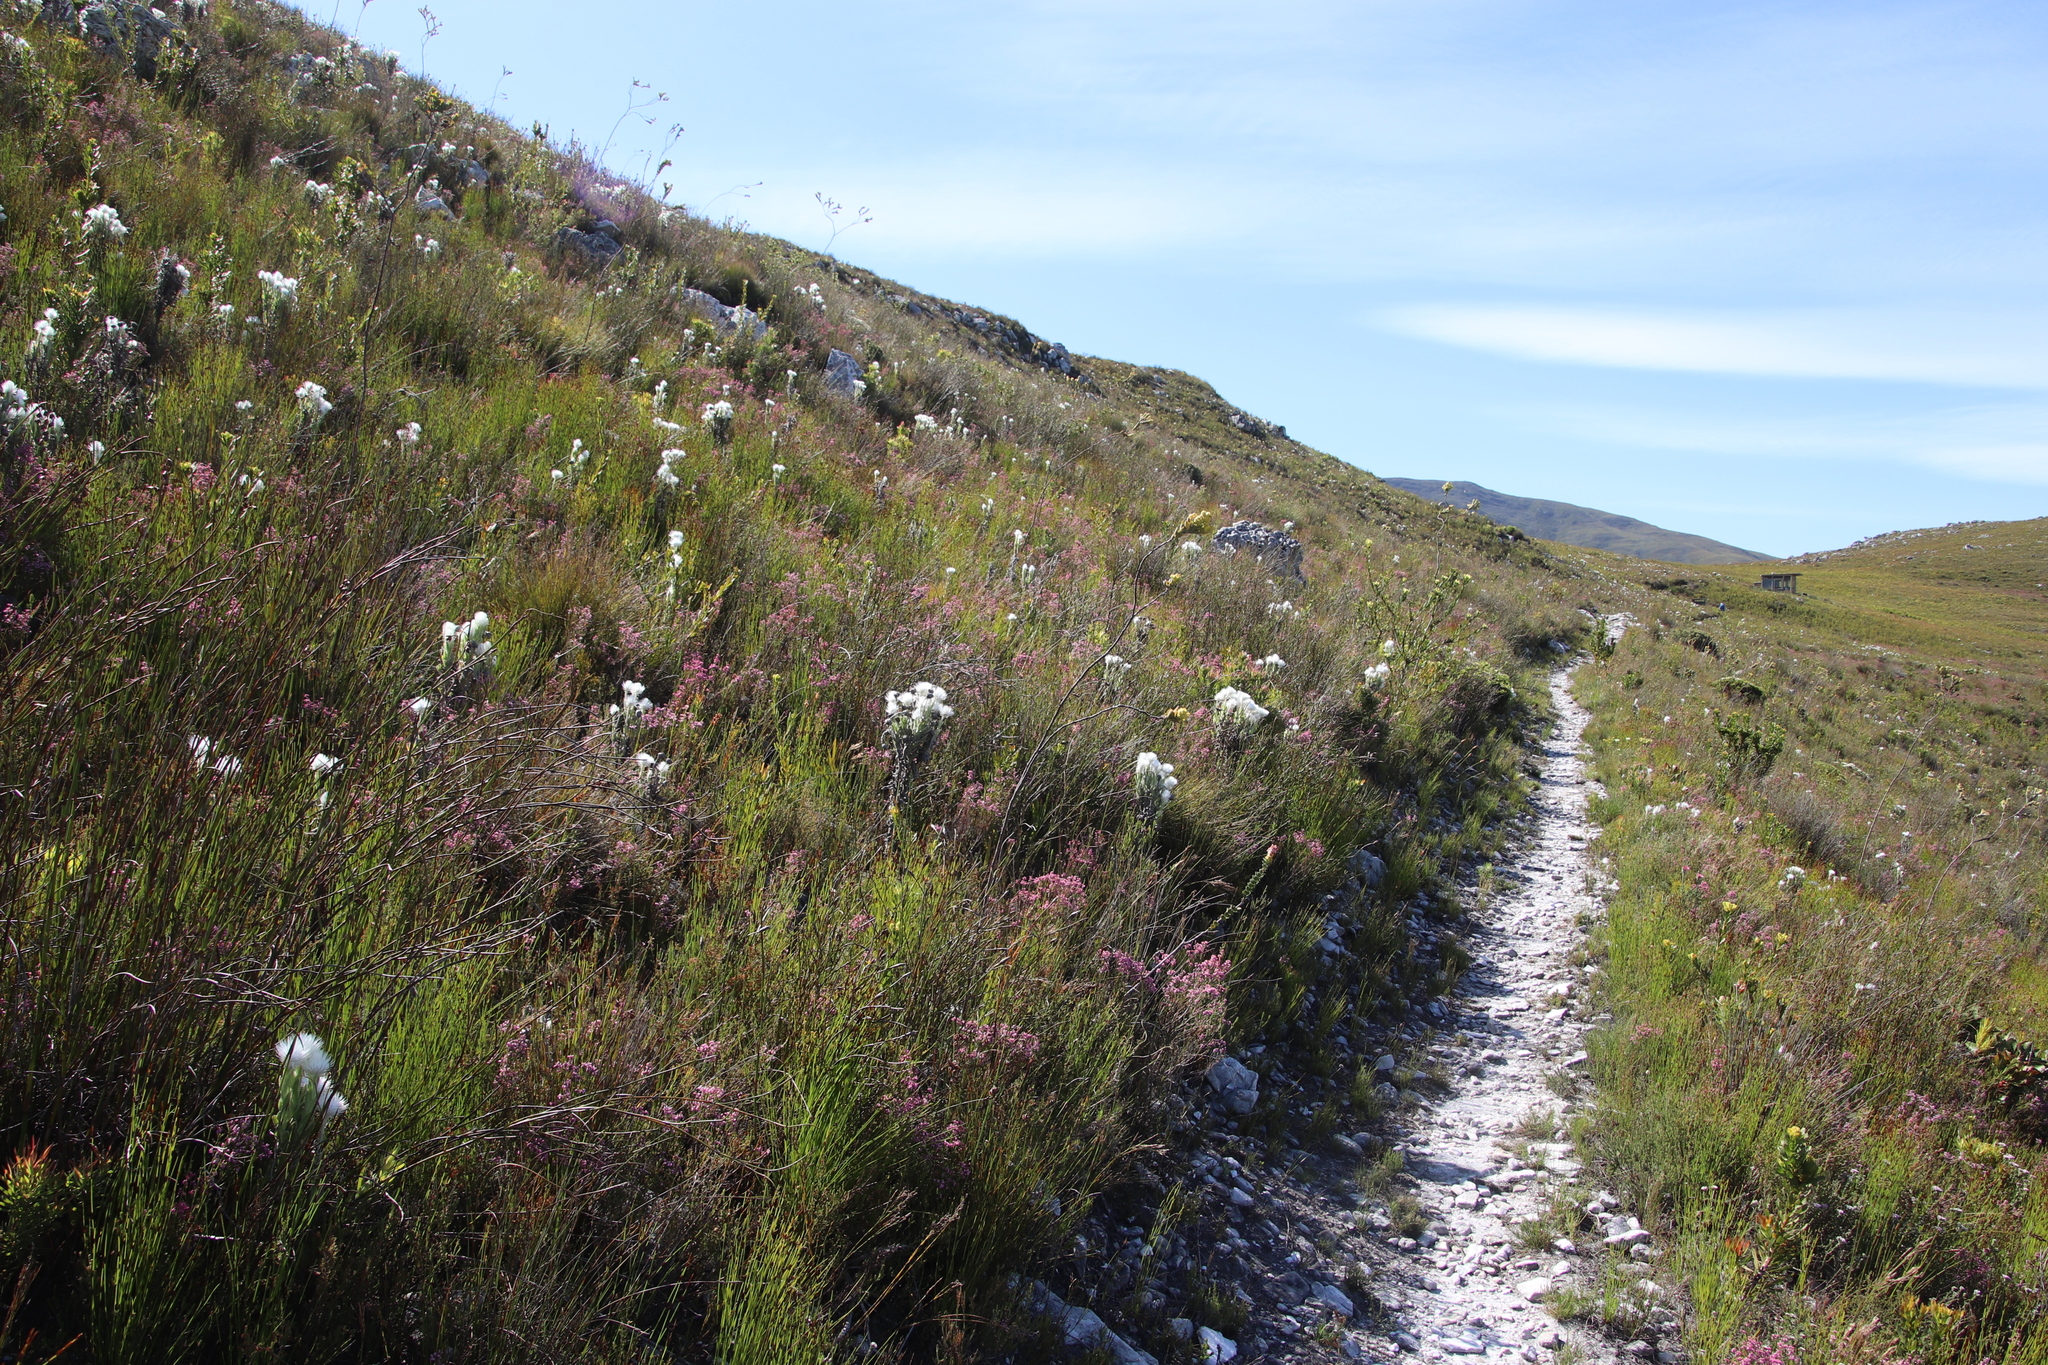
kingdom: Plantae
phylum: Tracheophyta
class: Magnoliopsida
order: Asterales
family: Asteraceae
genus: Syncarpha
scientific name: Syncarpha vestita
